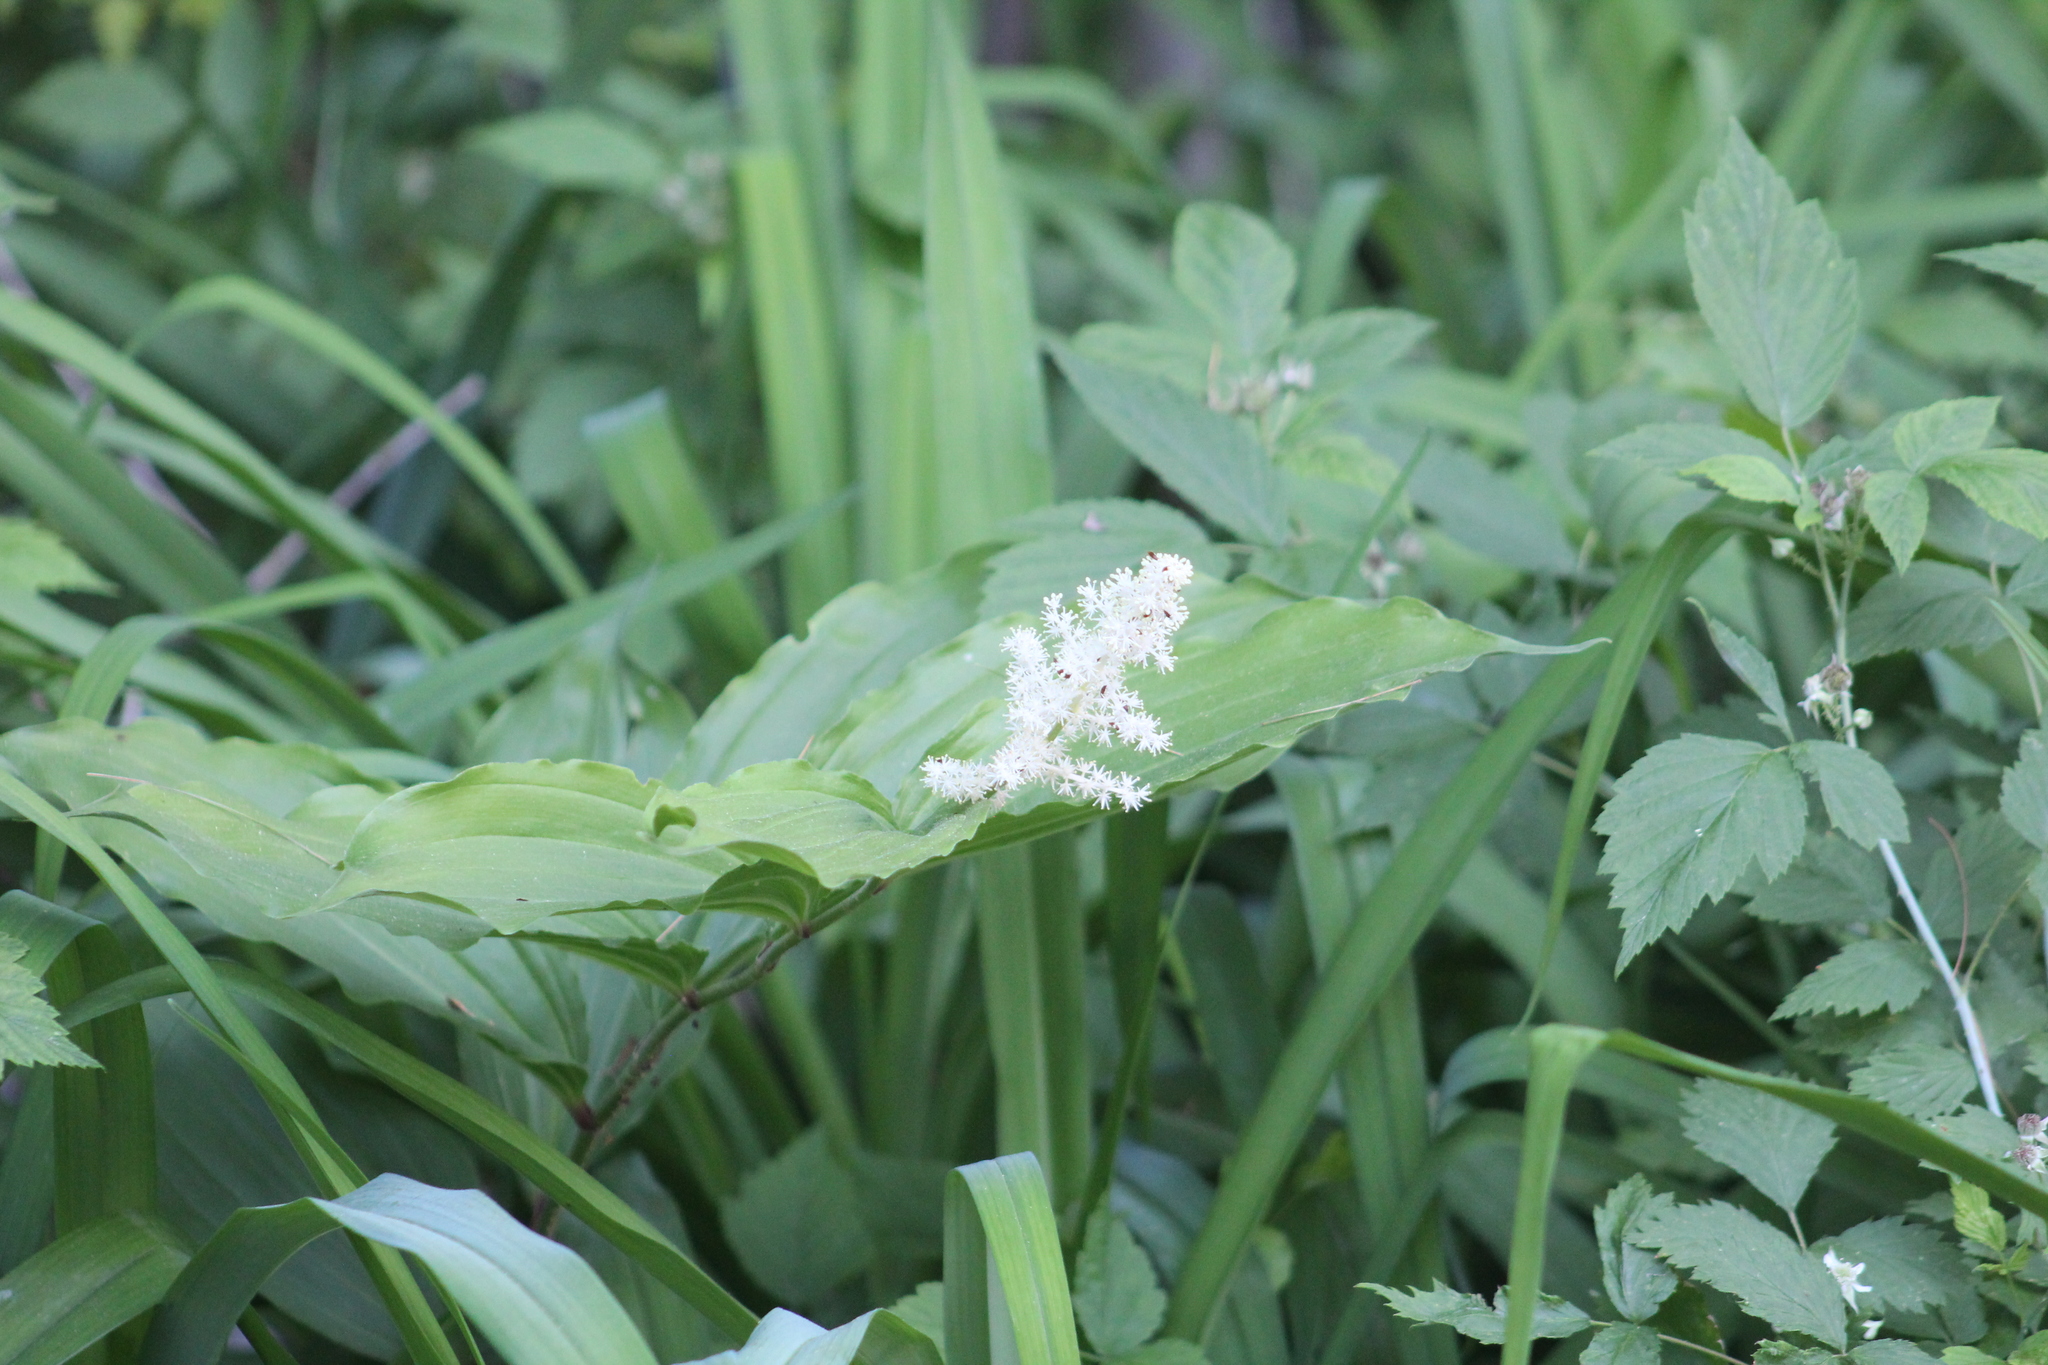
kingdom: Plantae
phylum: Tracheophyta
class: Liliopsida
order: Asparagales
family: Asparagaceae
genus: Maianthemum
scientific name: Maianthemum racemosum
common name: False spikenard
